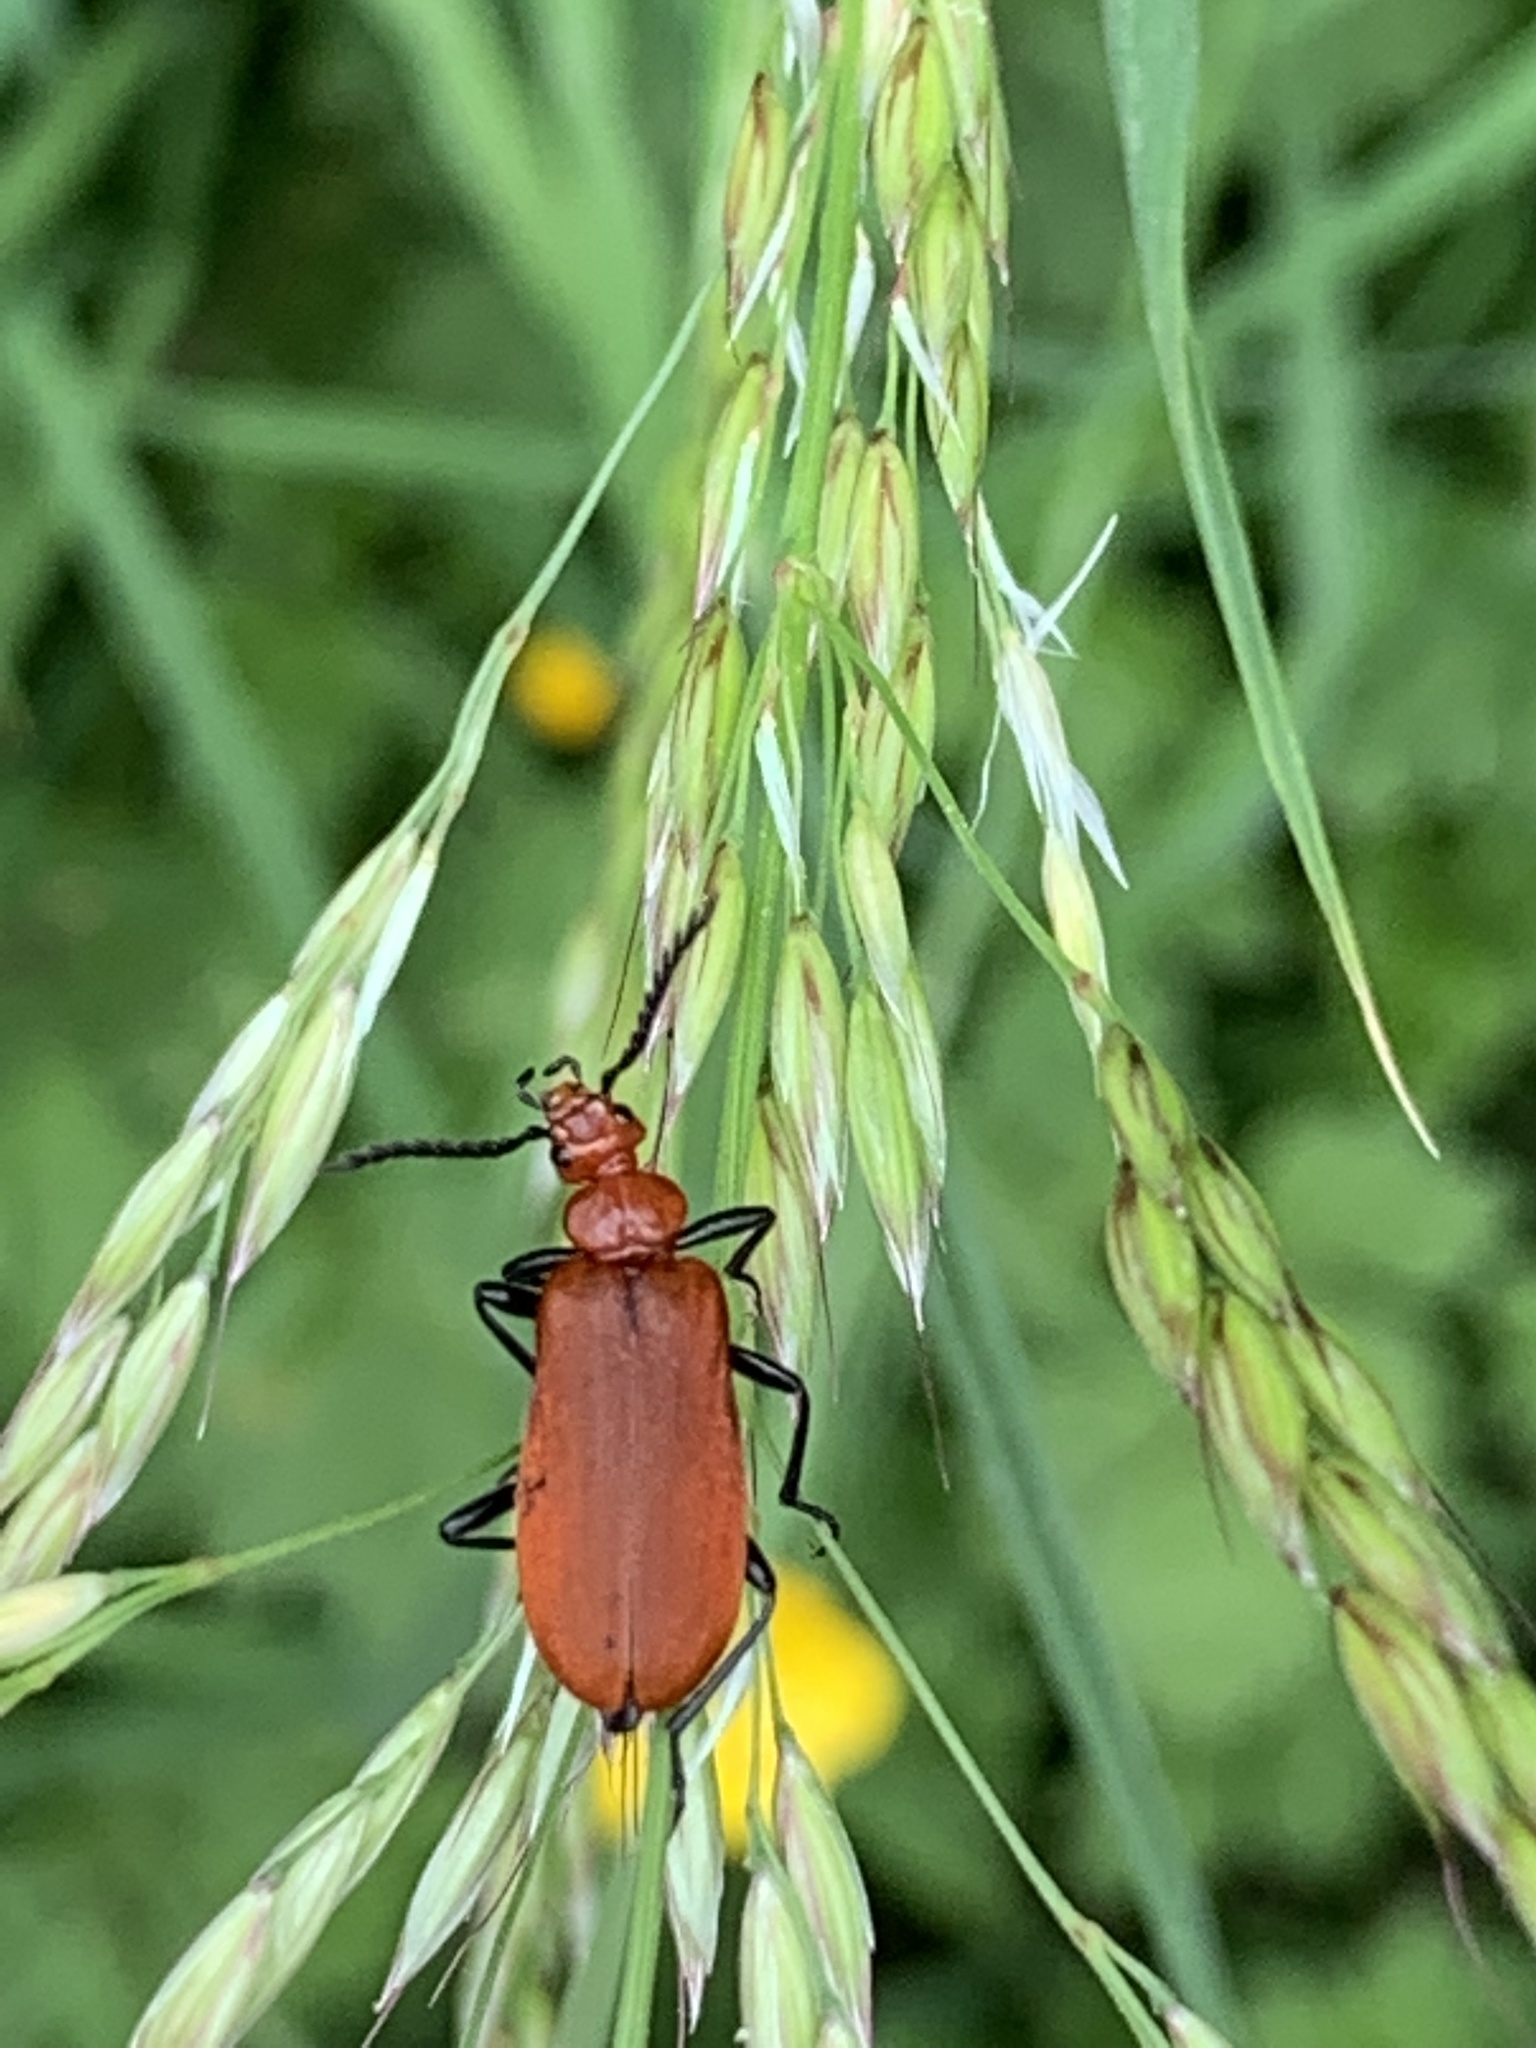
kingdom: Animalia
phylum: Arthropoda
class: Insecta
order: Coleoptera
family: Pyrochroidae
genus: Pyrochroa
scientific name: Pyrochroa serraticornis
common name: Red-headed cardinal beetle
